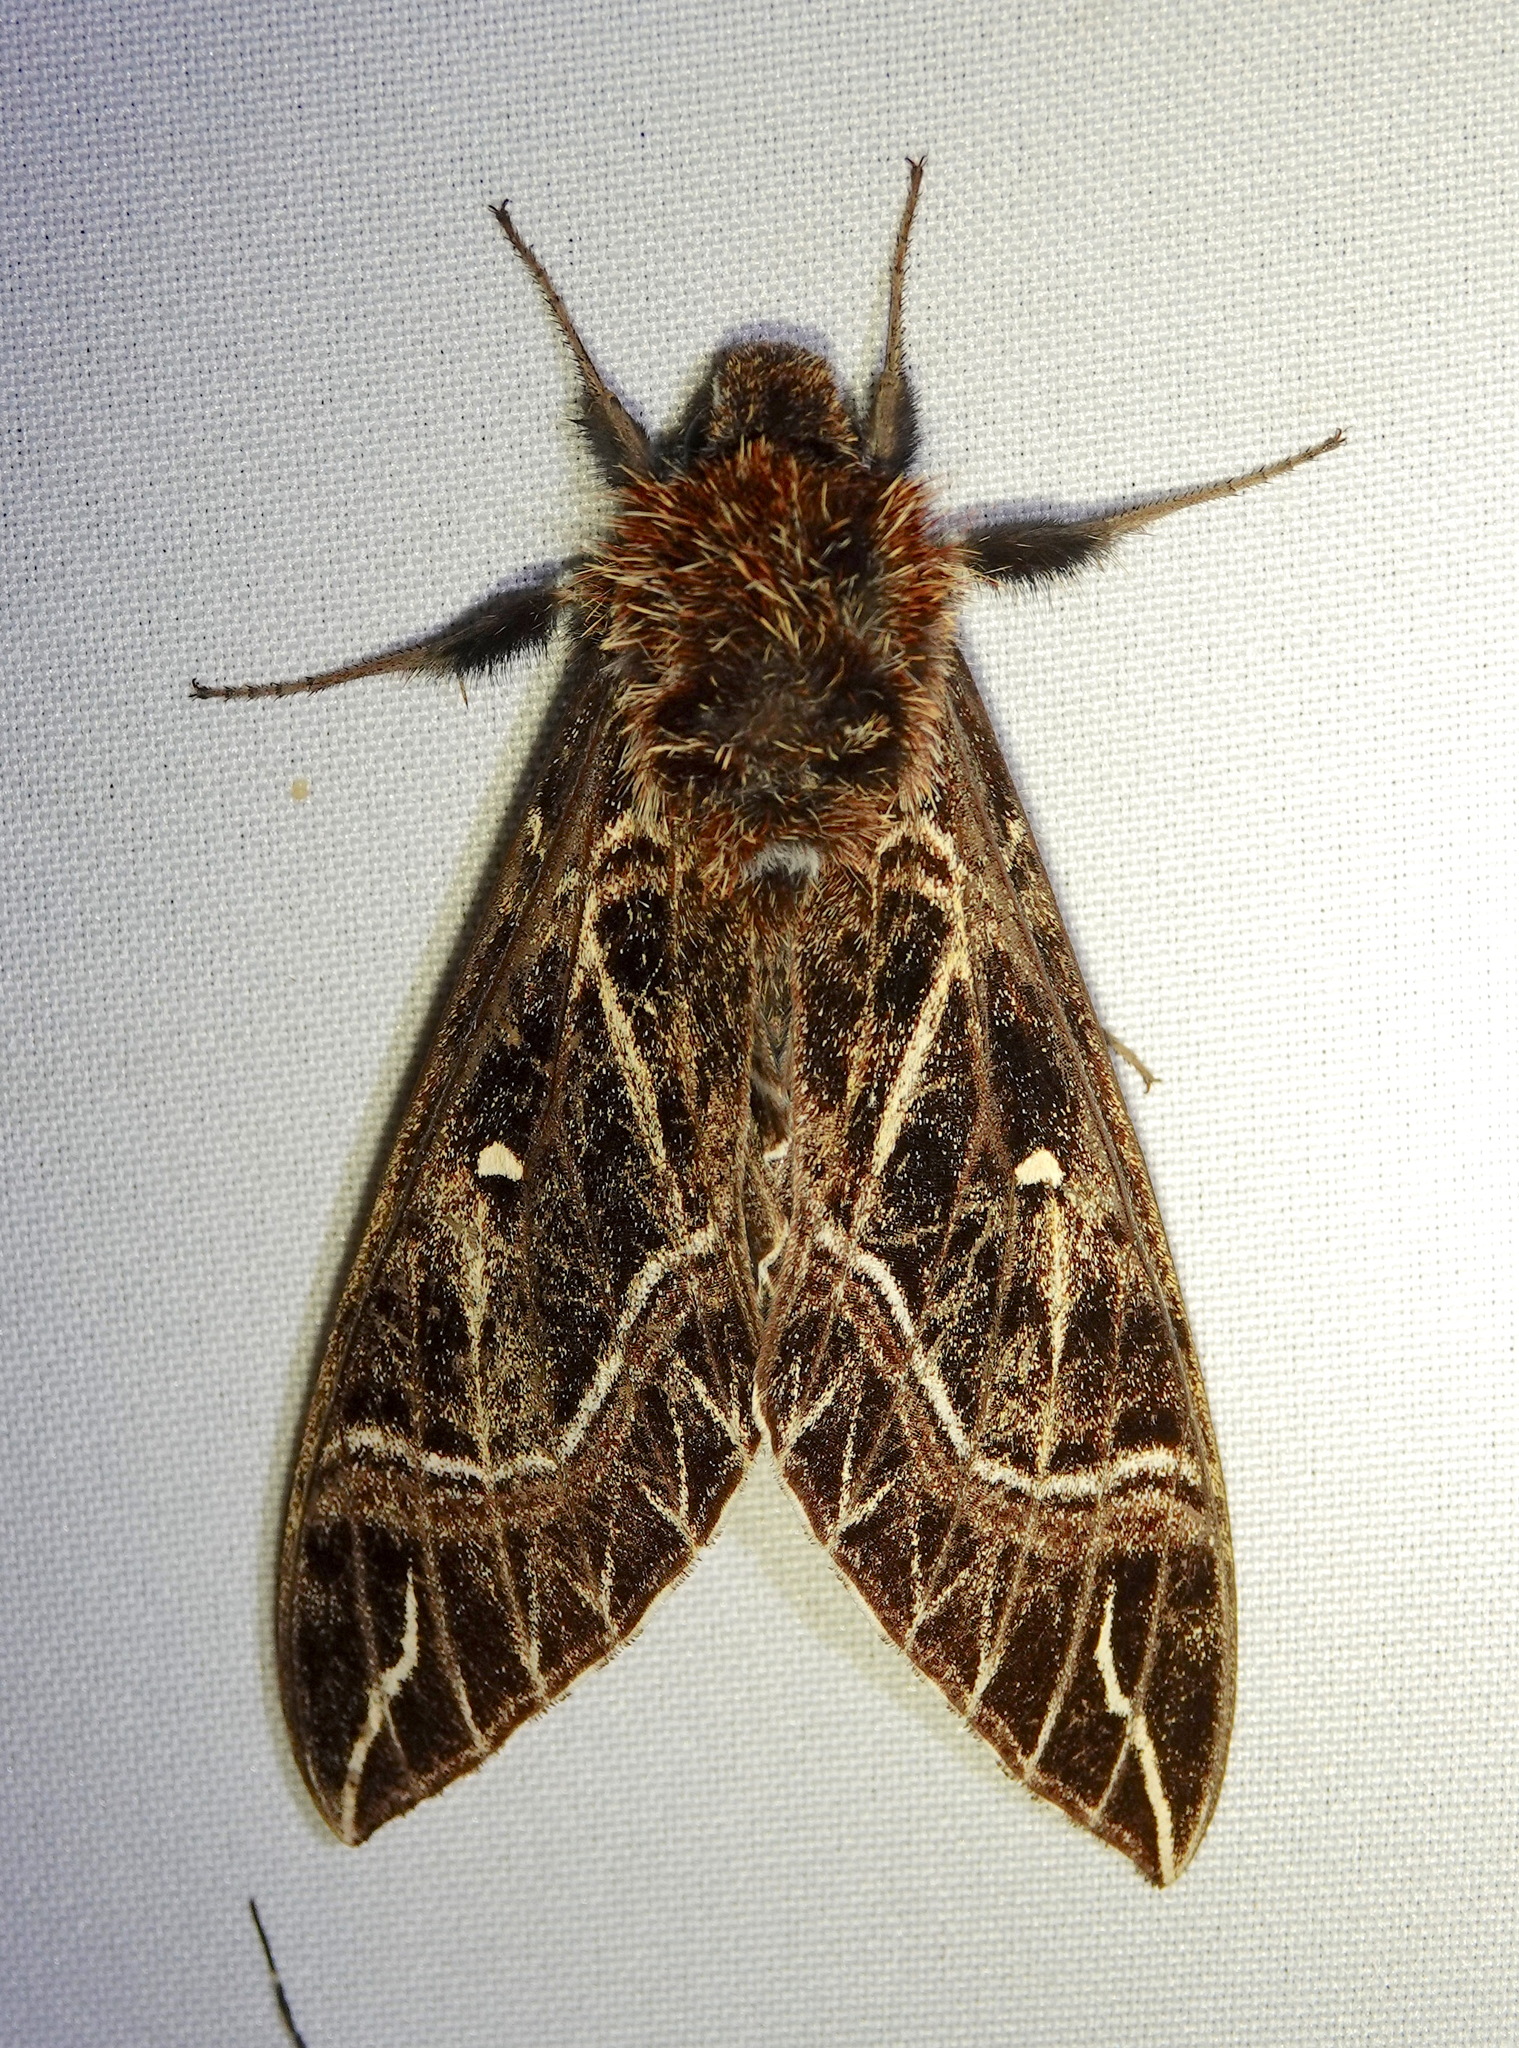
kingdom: Animalia
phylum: Arthropoda
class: Insecta
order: Lepidoptera
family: Sphingidae
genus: Euryglottis
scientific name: Euryglottis aper
